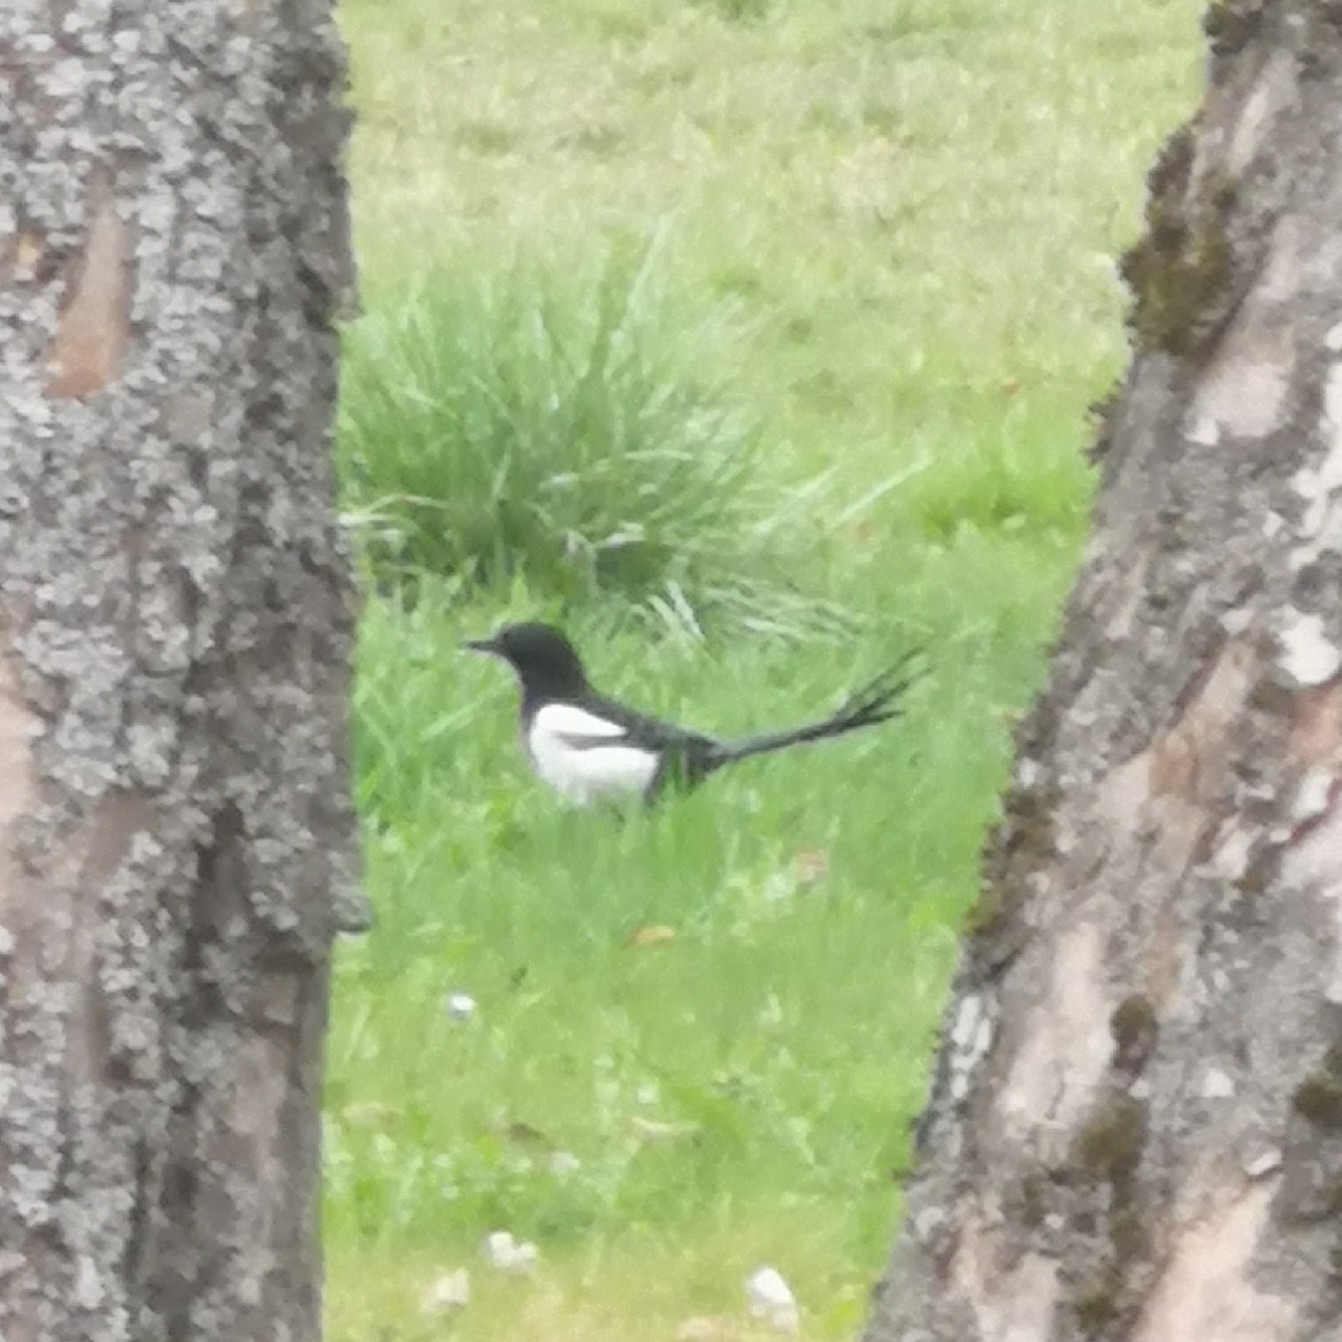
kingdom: Animalia
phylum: Chordata
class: Aves
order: Passeriformes
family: Corvidae
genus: Pica
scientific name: Pica pica
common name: Eurasian magpie
